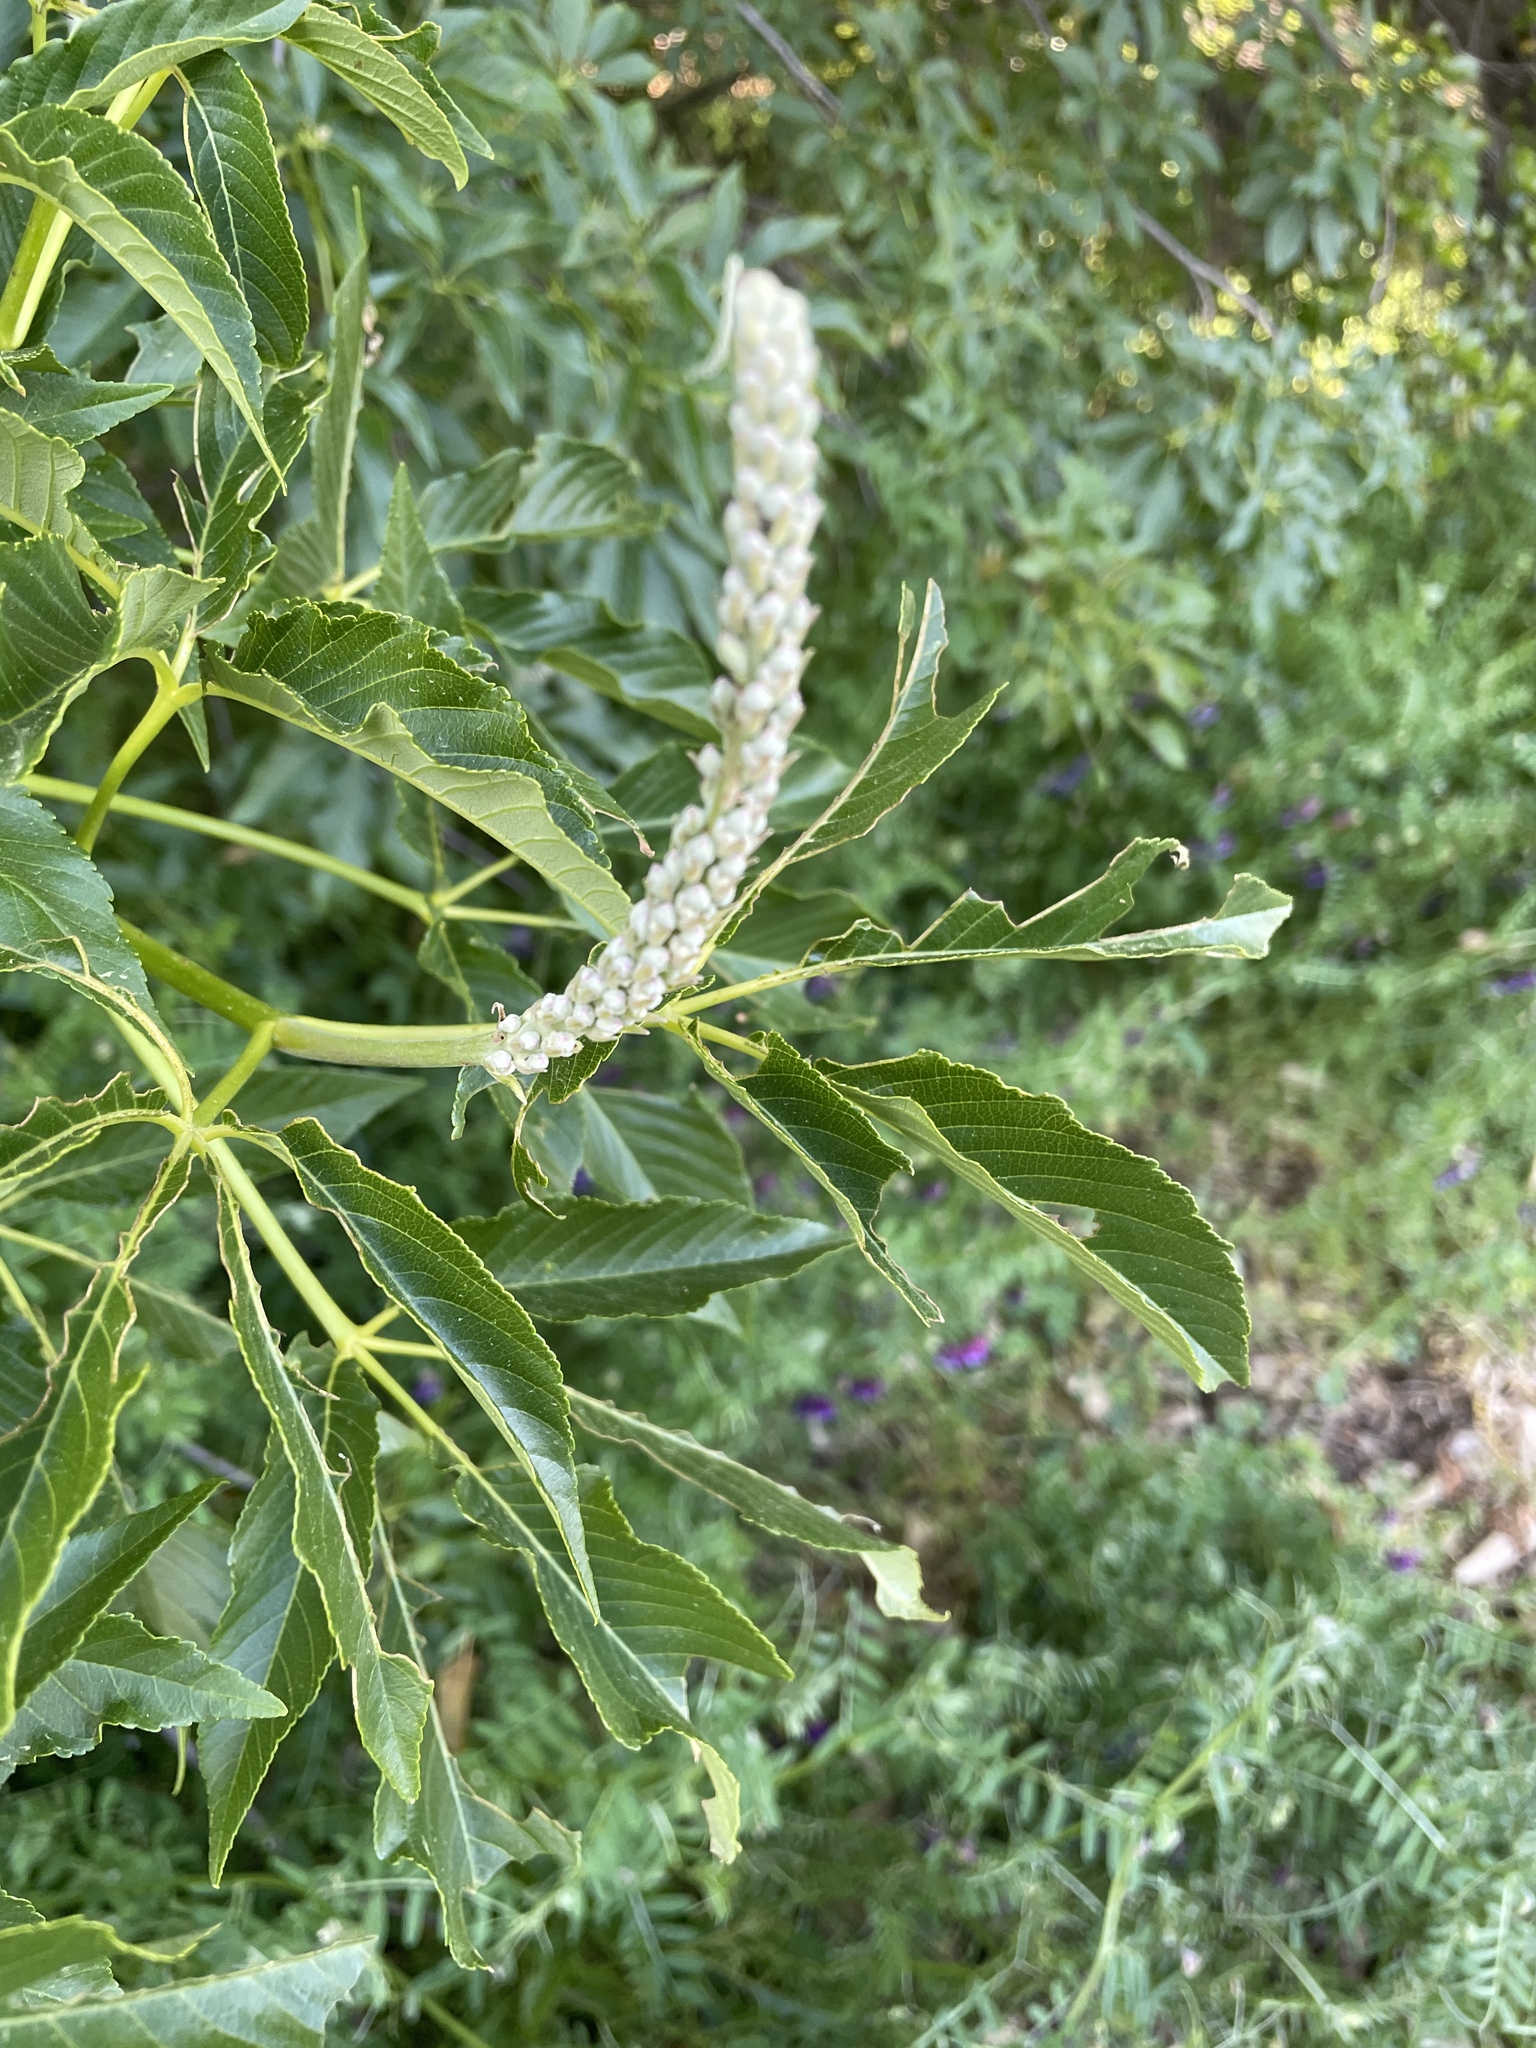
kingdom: Plantae
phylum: Tracheophyta
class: Magnoliopsida
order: Sapindales
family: Sapindaceae
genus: Aesculus
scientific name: Aesculus californica
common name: California buckeye
